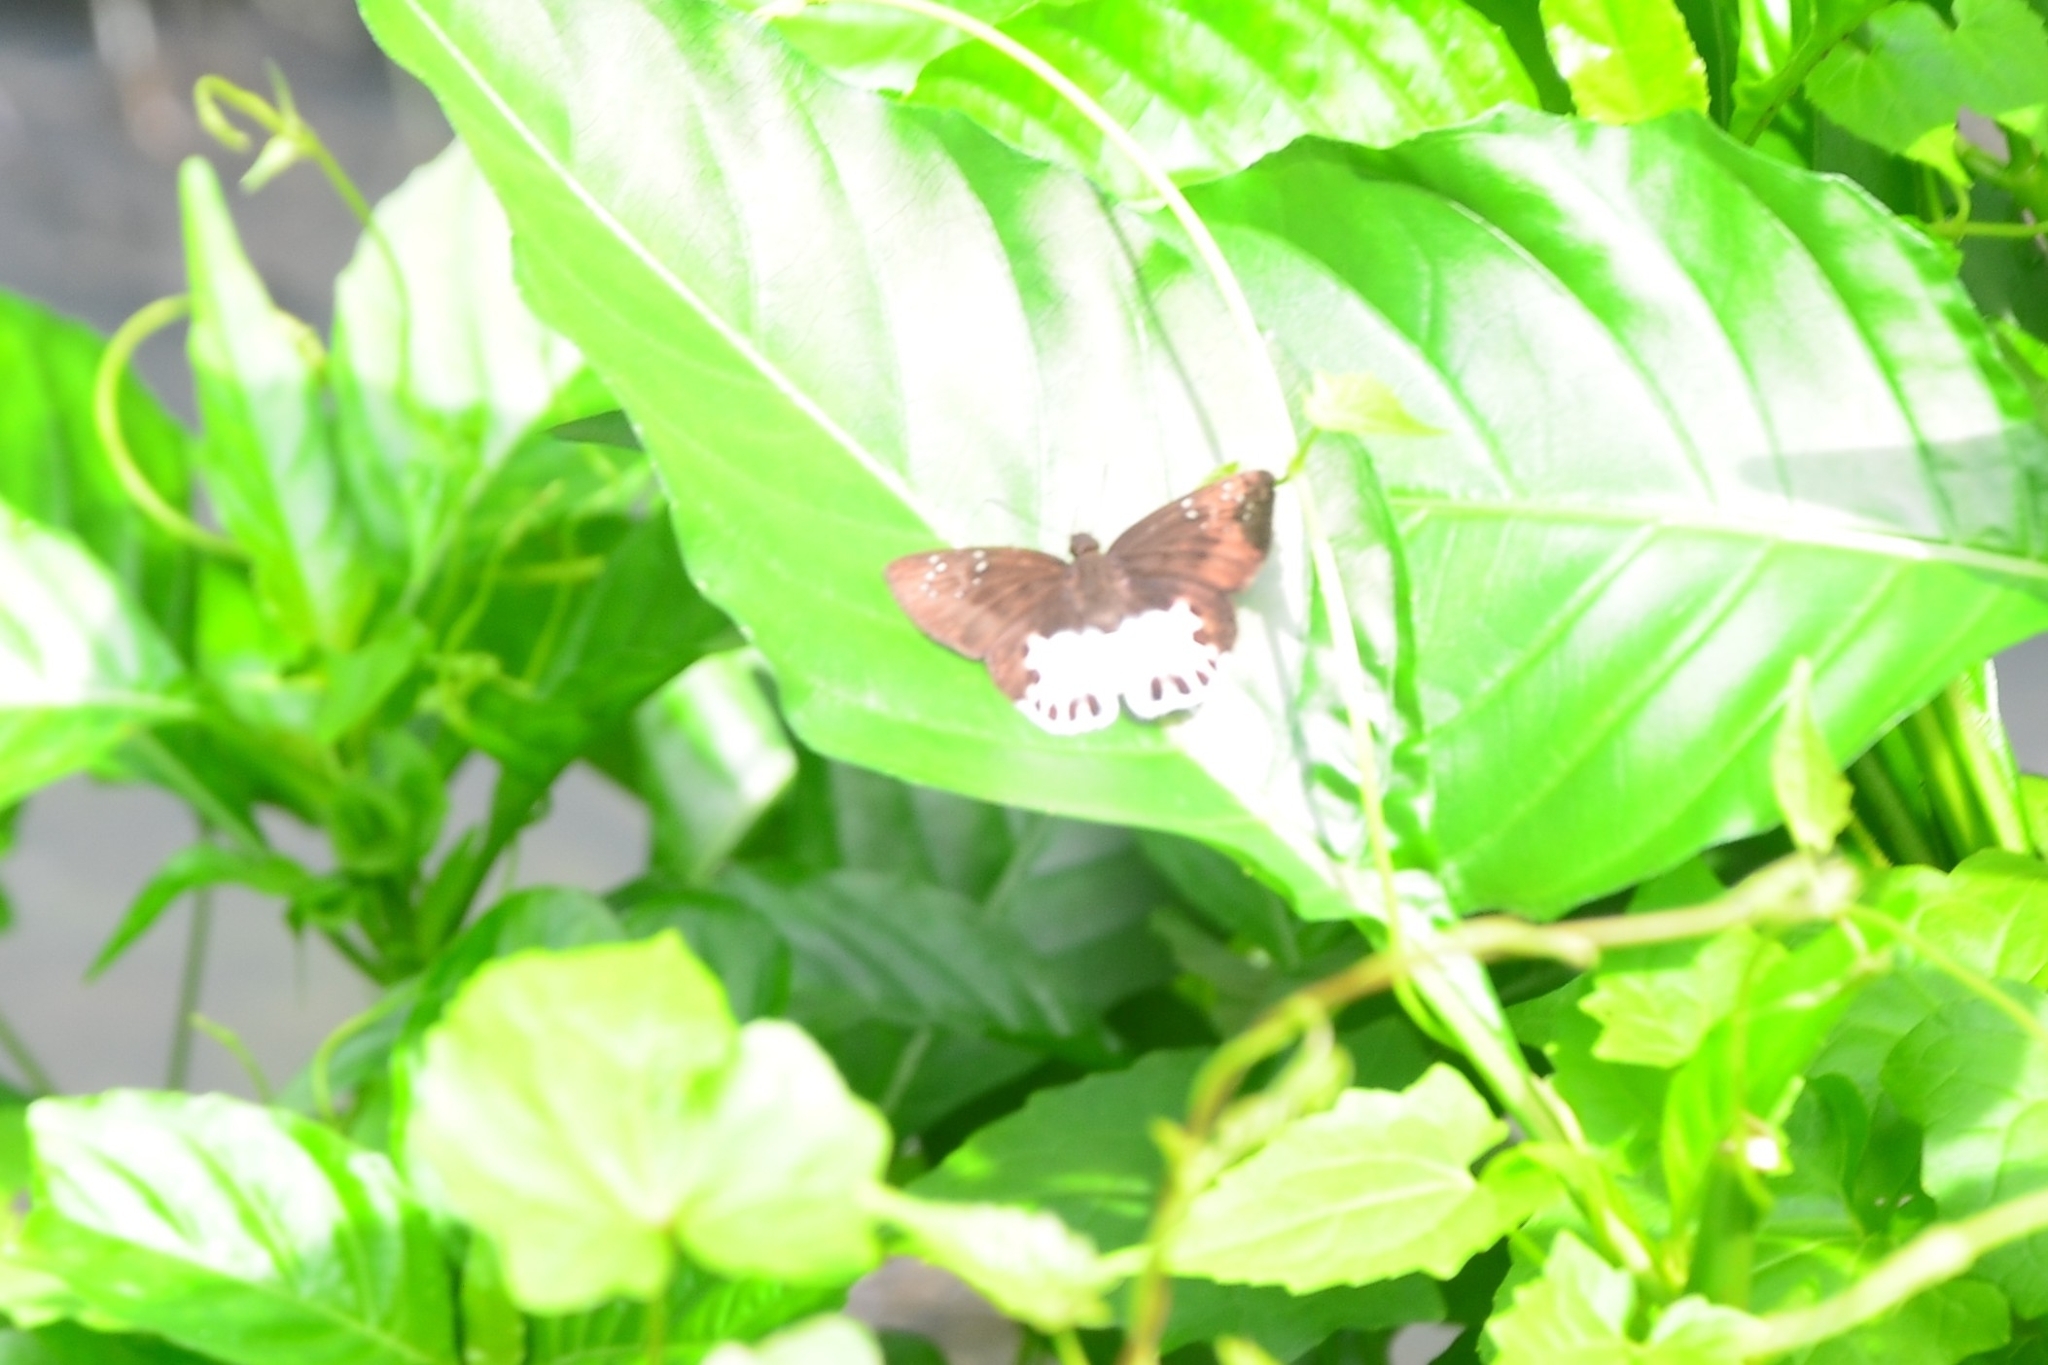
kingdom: Animalia
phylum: Arthropoda
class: Insecta
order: Lepidoptera
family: Hesperiidae
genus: Tagiades
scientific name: Tagiades litigiosa
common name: Water snow flat
